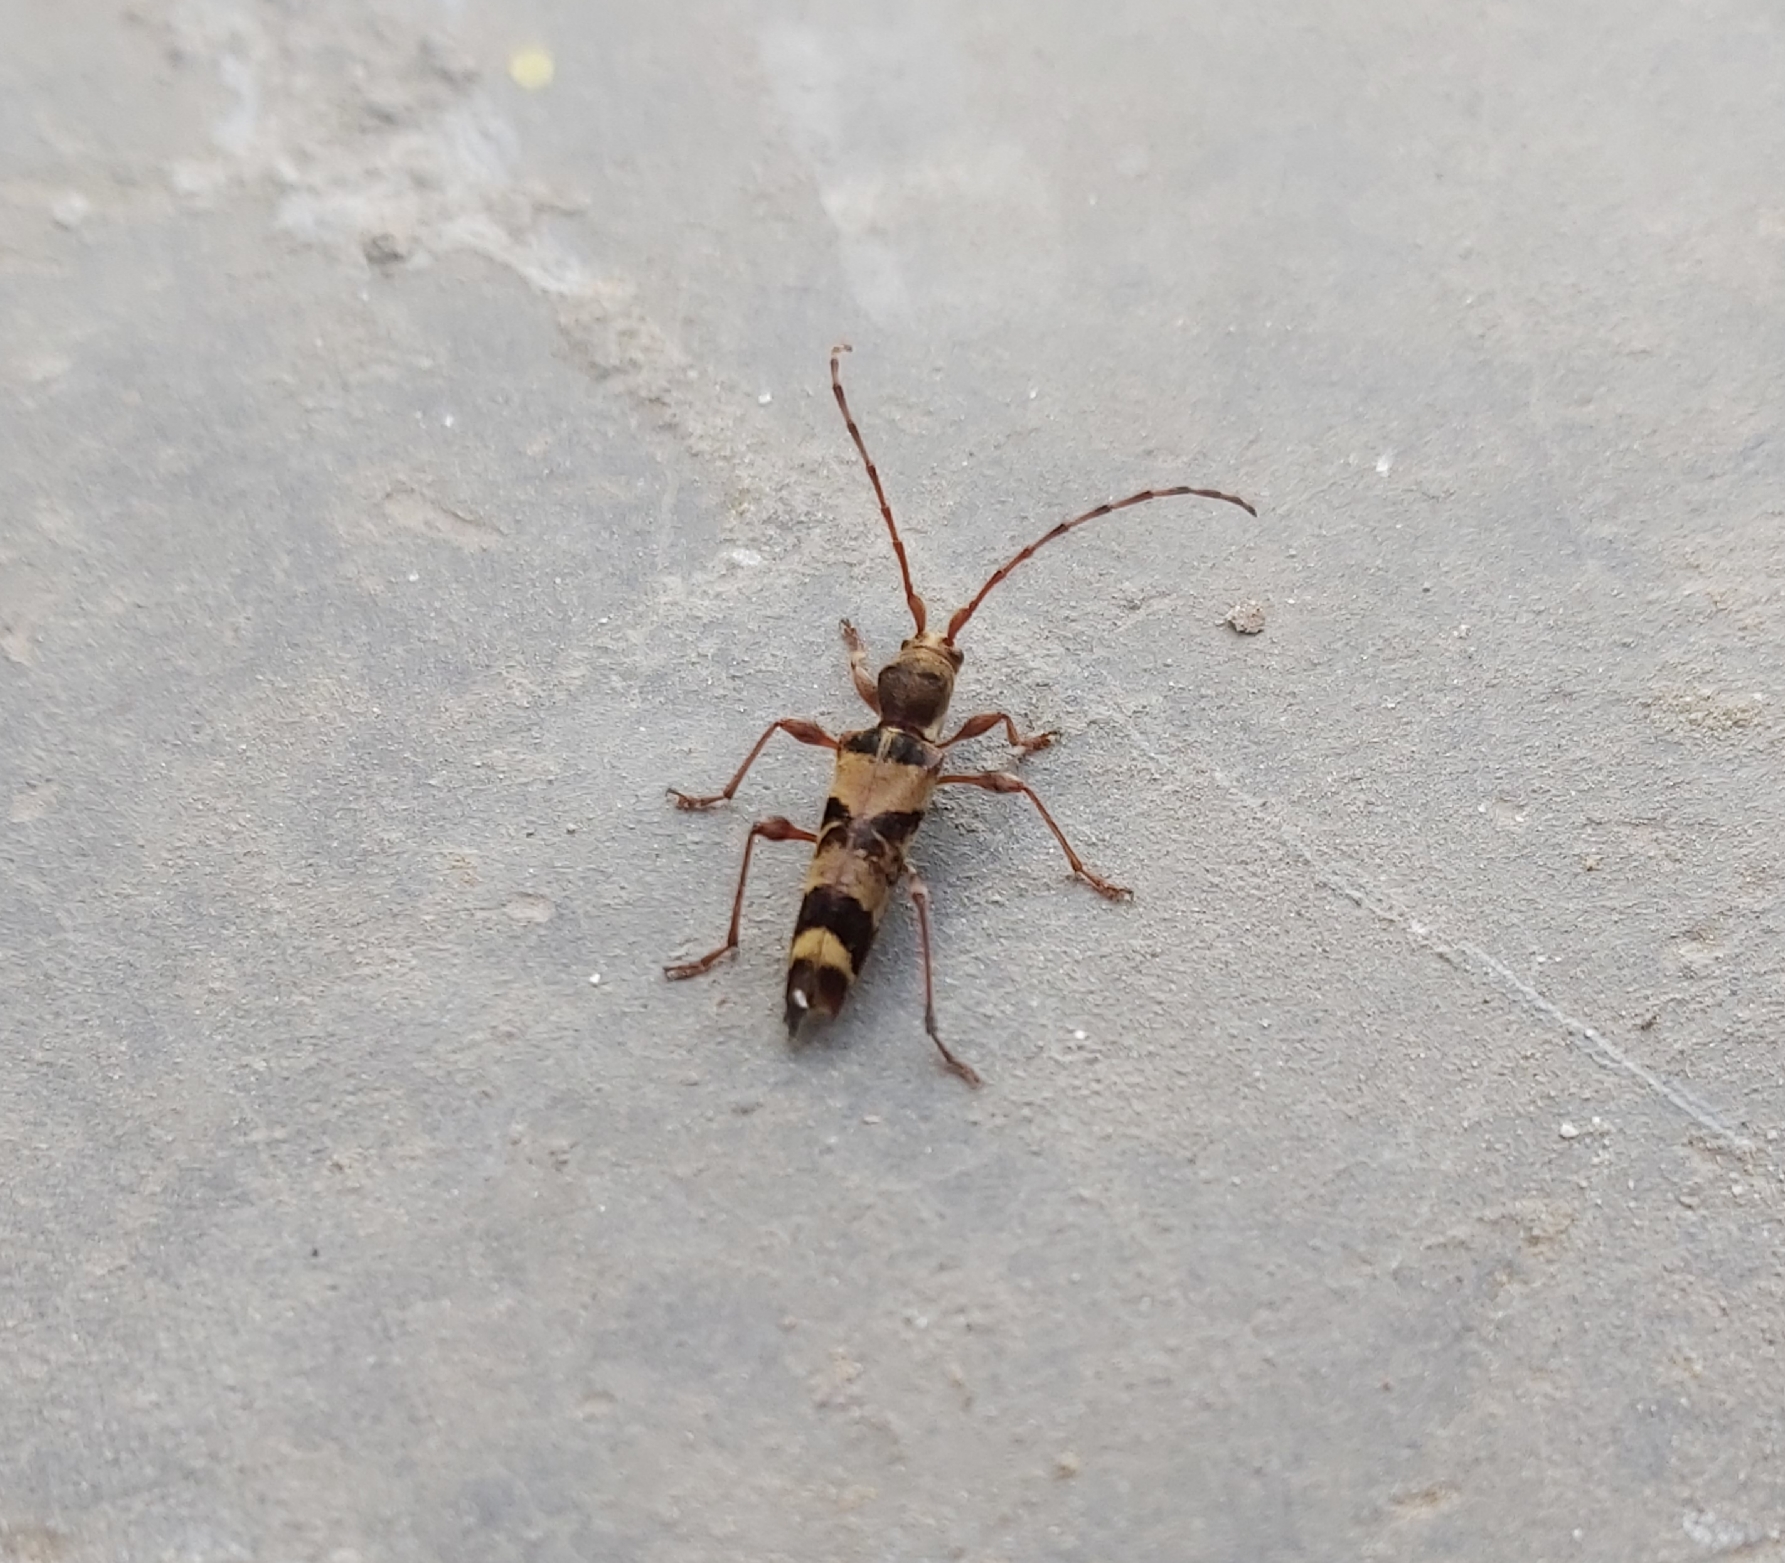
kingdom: Animalia
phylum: Arthropoda
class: Insecta
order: Coleoptera
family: Cerambycidae
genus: Anaglyptus
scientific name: Anaglyptus longispinis
